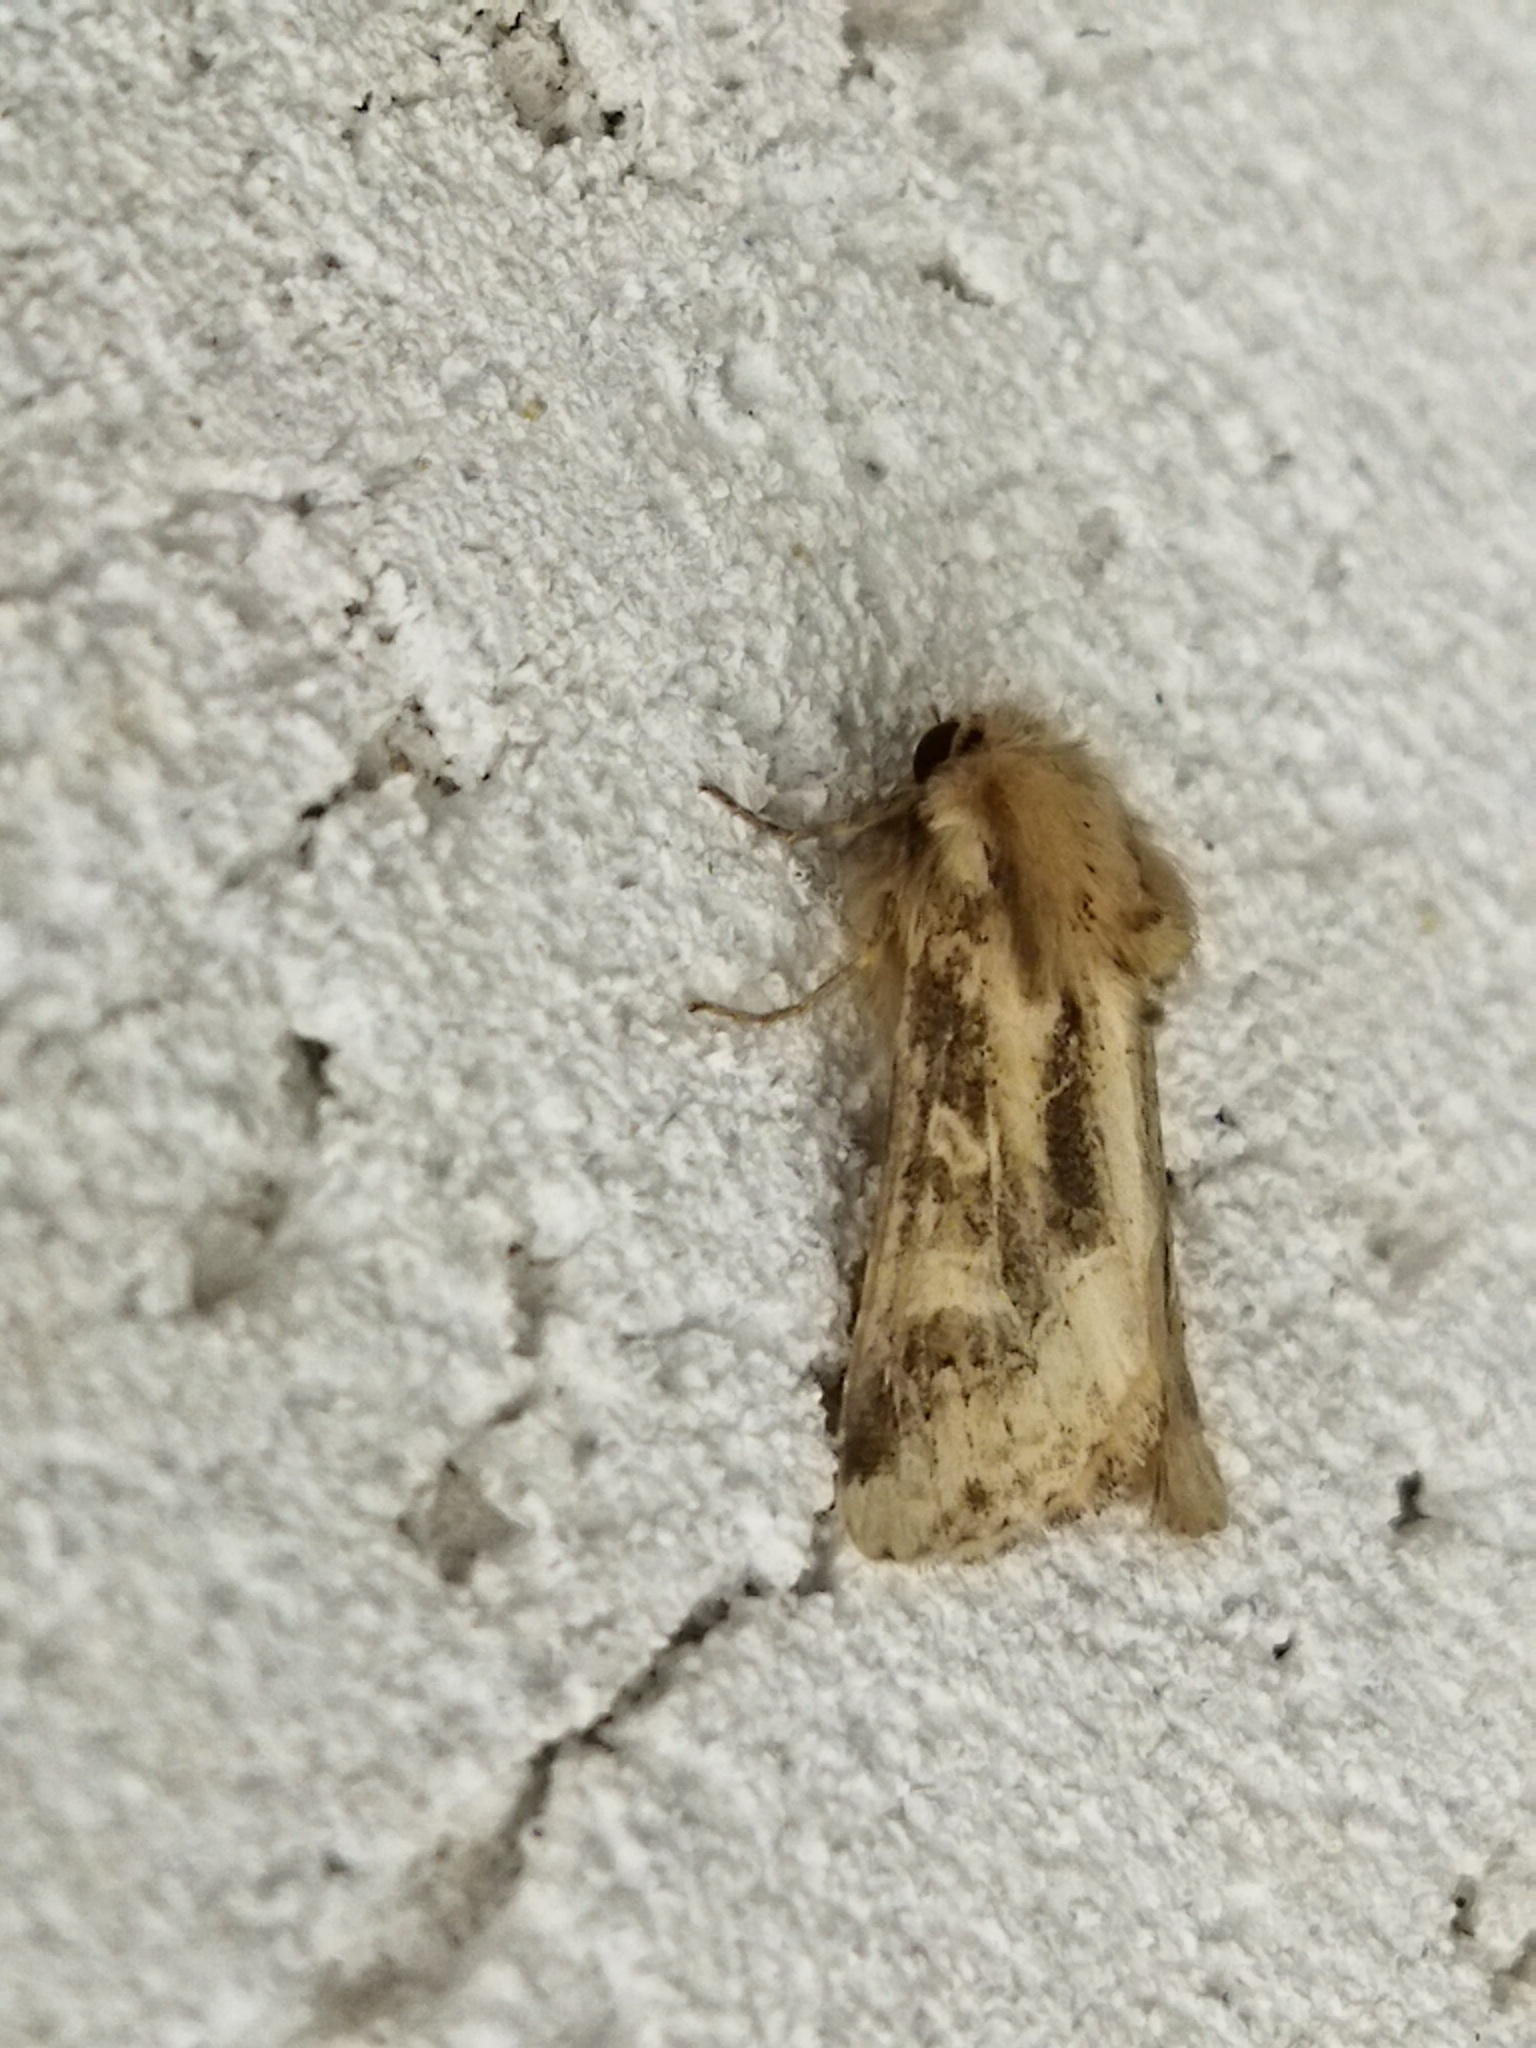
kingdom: Animalia
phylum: Arthropoda
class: Insecta
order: Lepidoptera
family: Noctuidae
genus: Luperina
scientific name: Luperina dumerilii
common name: Dumeril's rustic
